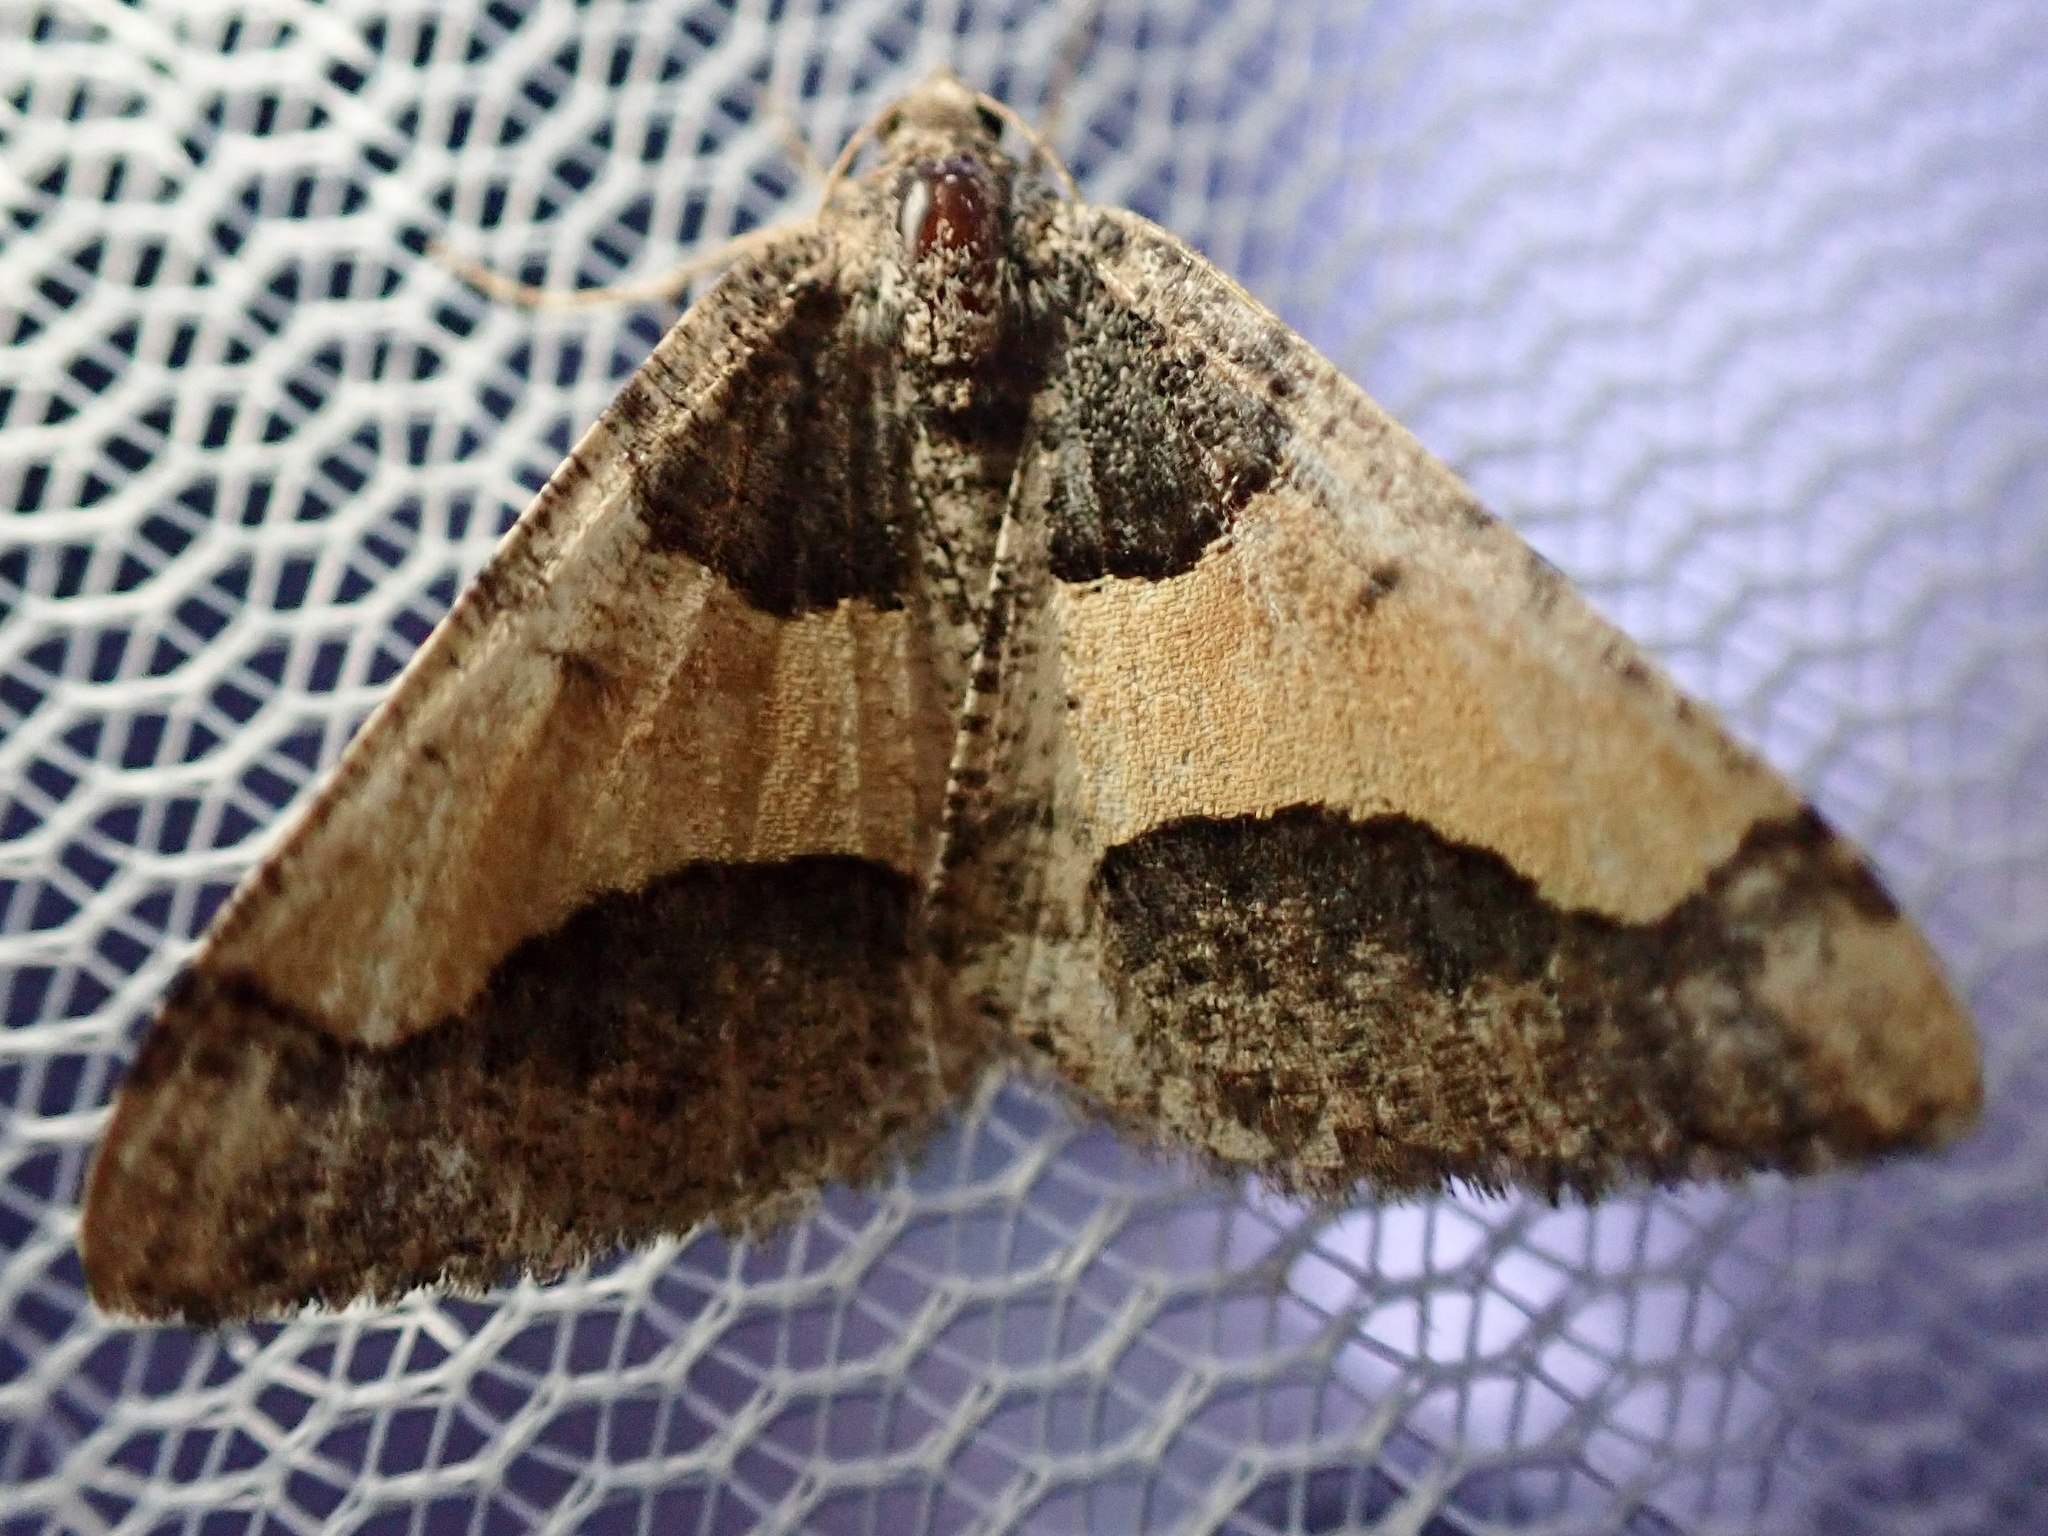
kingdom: Animalia
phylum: Arthropoda
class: Insecta
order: Lepidoptera
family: Geometridae
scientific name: Geometridae
